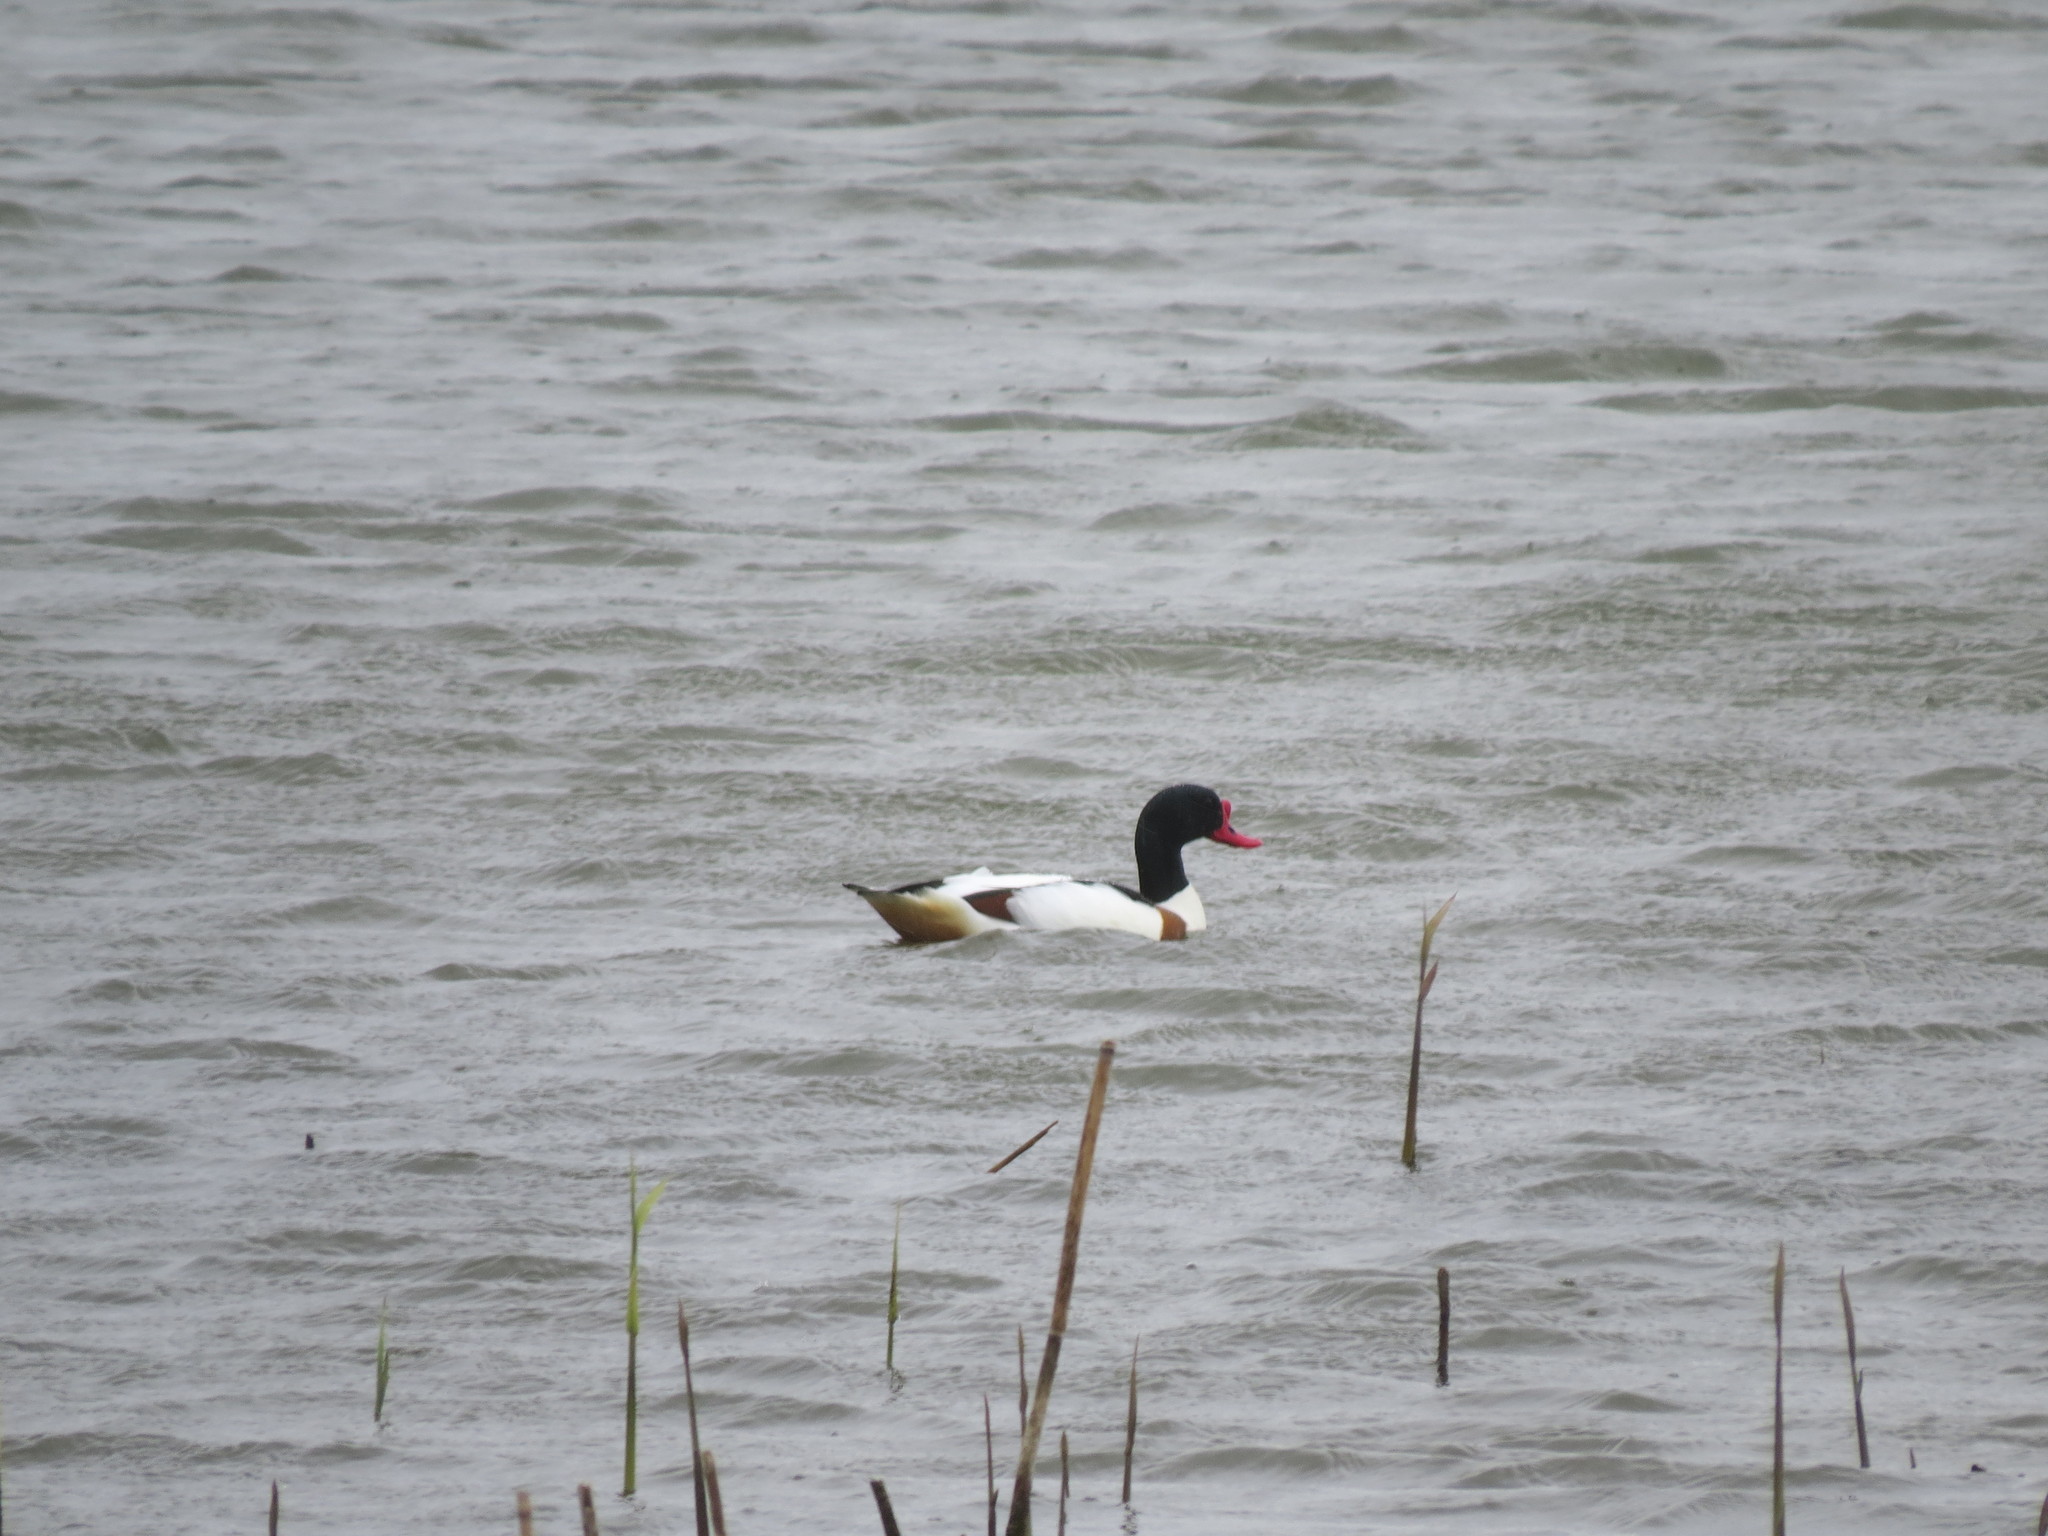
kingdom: Animalia
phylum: Chordata
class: Aves
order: Anseriformes
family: Anatidae
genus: Tadorna
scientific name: Tadorna tadorna
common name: Common shelduck
